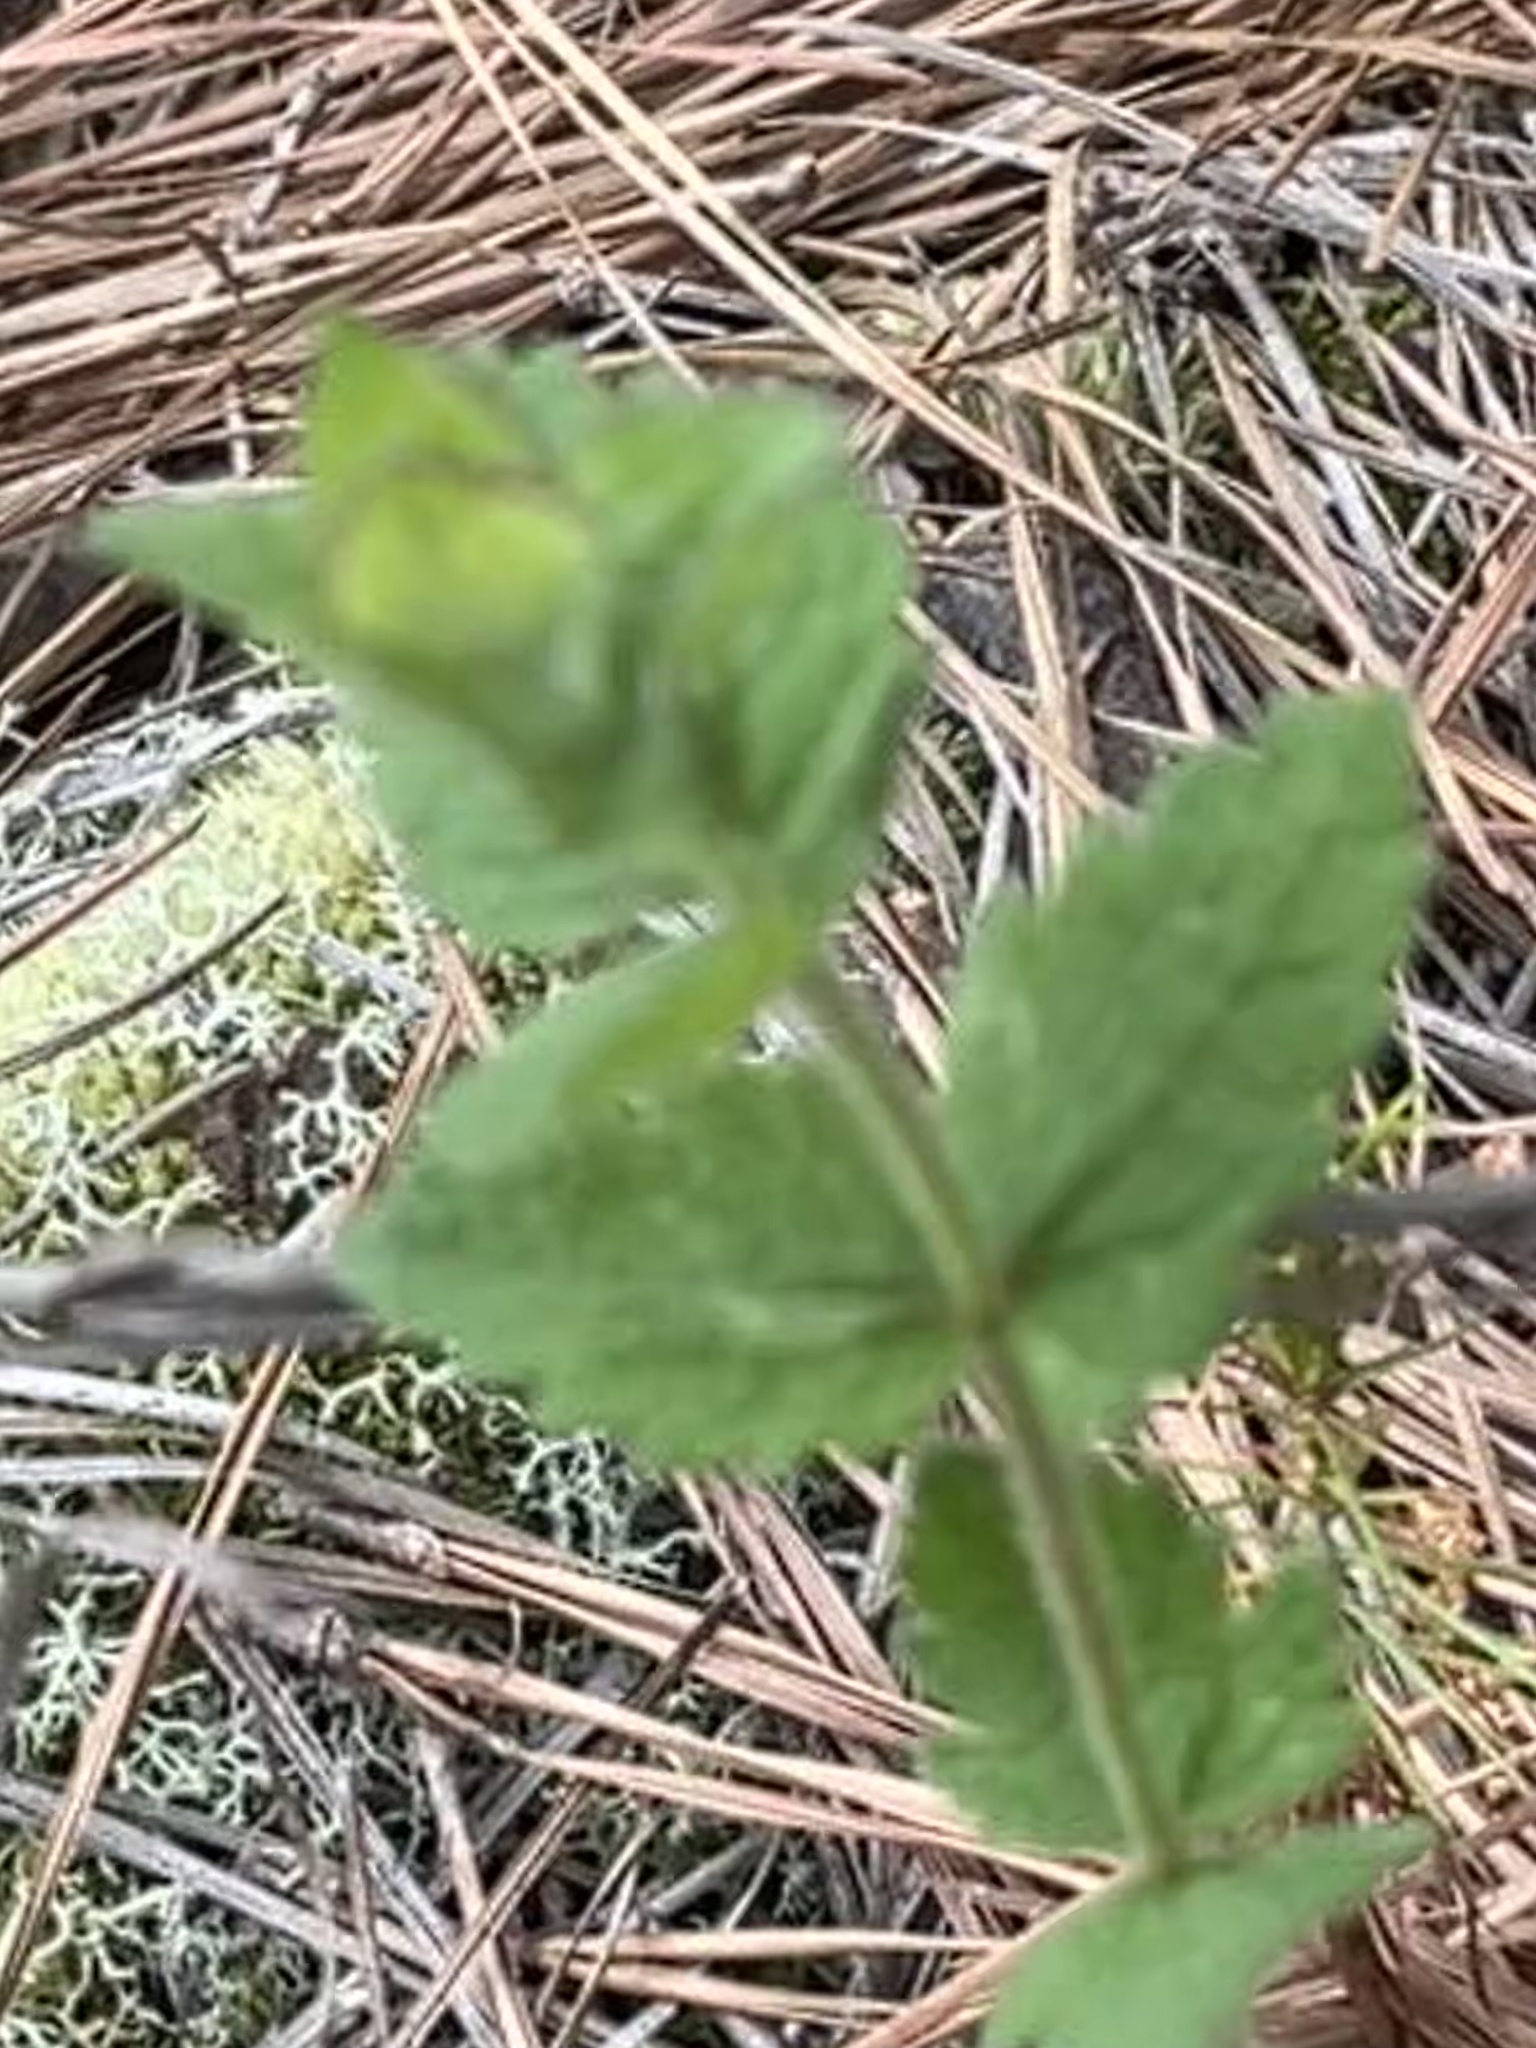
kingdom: Plantae
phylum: Tracheophyta
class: Magnoliopsida
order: Asterales
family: Asteraceae
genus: Eupatorium
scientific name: Eupatorium rotundifolium
